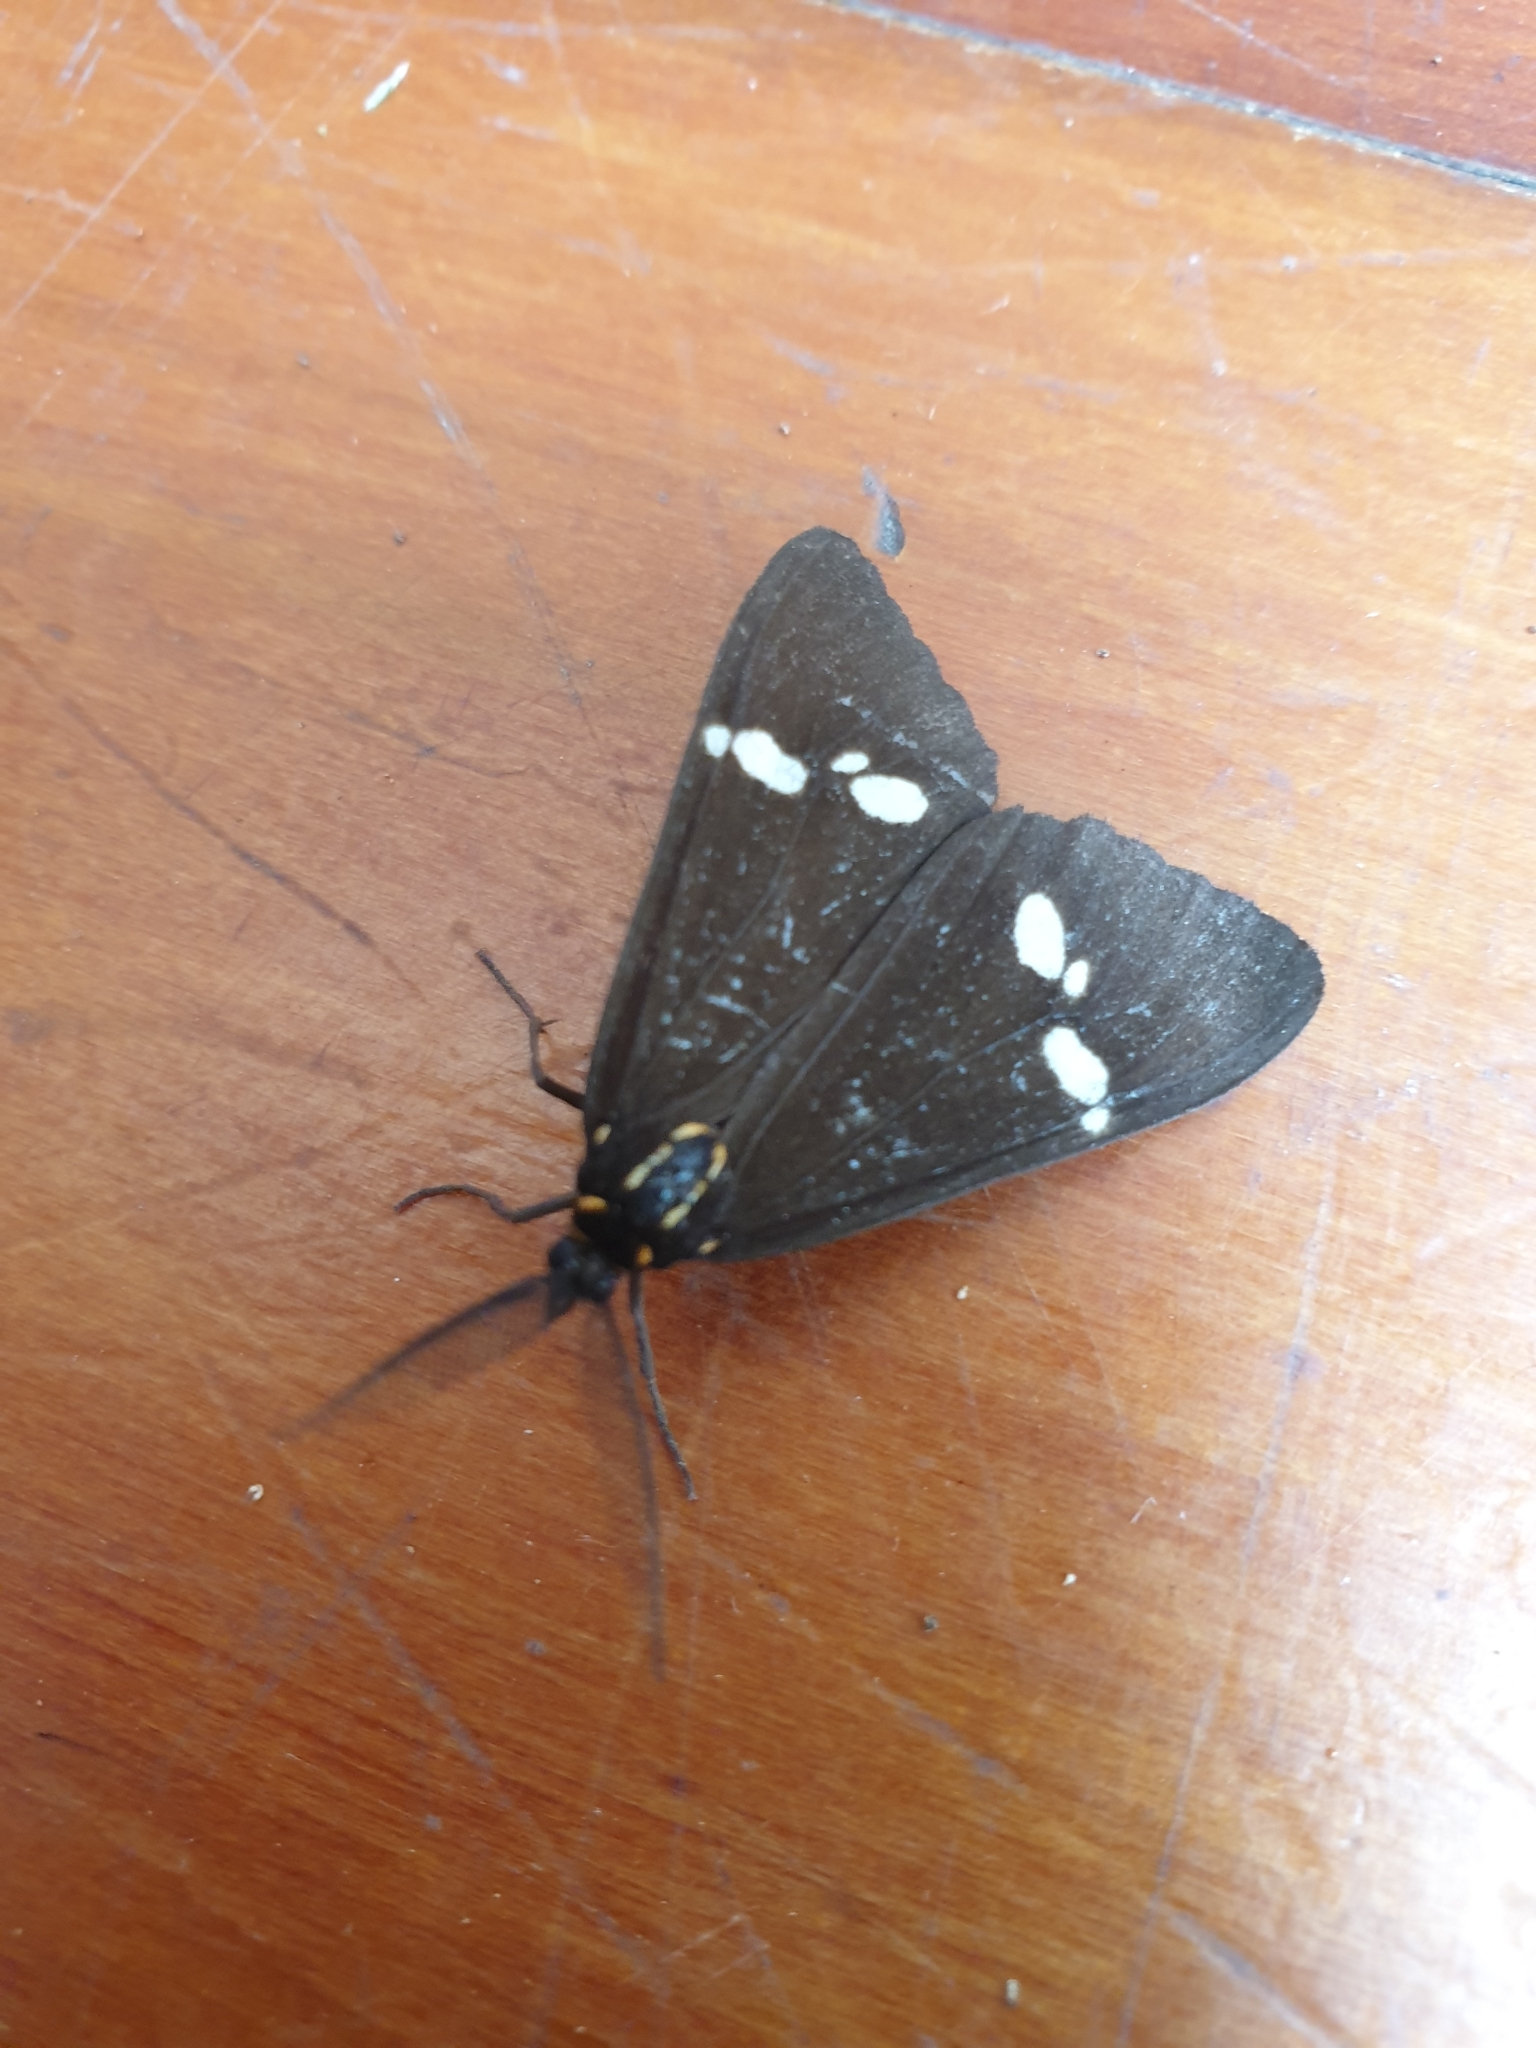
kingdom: Animalia
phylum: Arthropoda
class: Insecta
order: Lepidoptera
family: Erebidae
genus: Nyctemera
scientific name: Nyctemera annulatum
